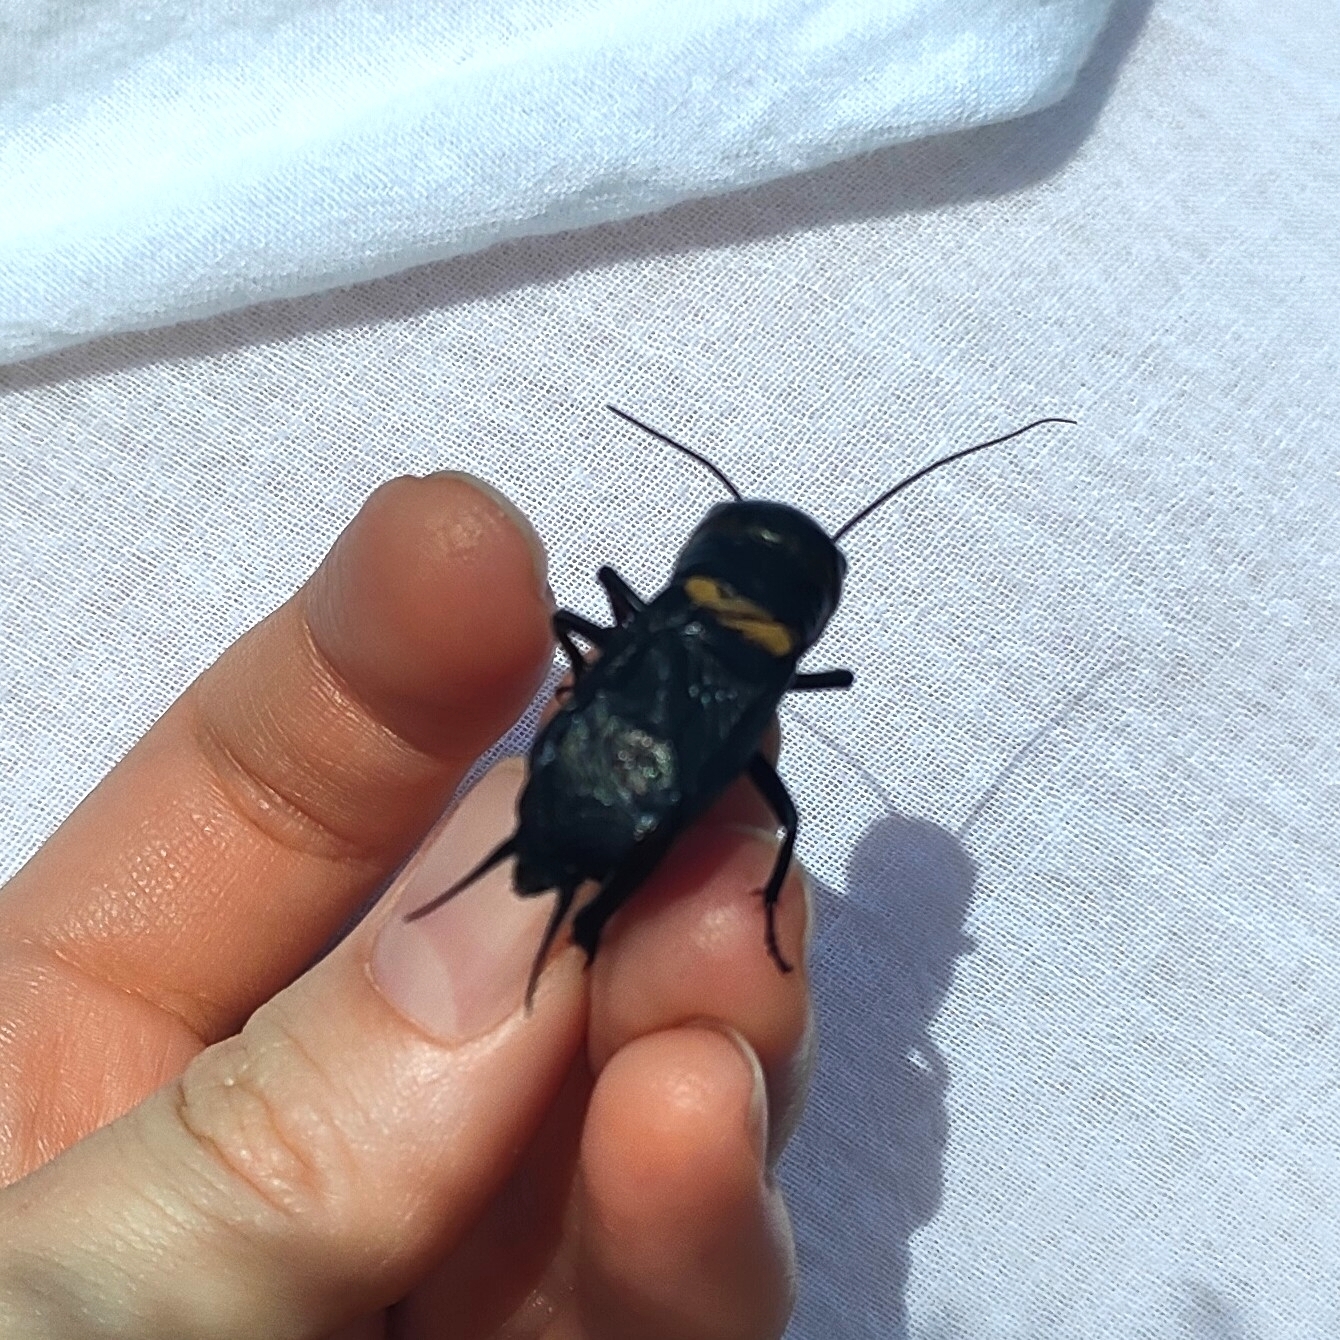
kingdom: Animalia
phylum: Arthropoda
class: Insecta
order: Orthoptera
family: Gryllidae
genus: Gryllus
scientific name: Gryllus campestris
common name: Field cricket
